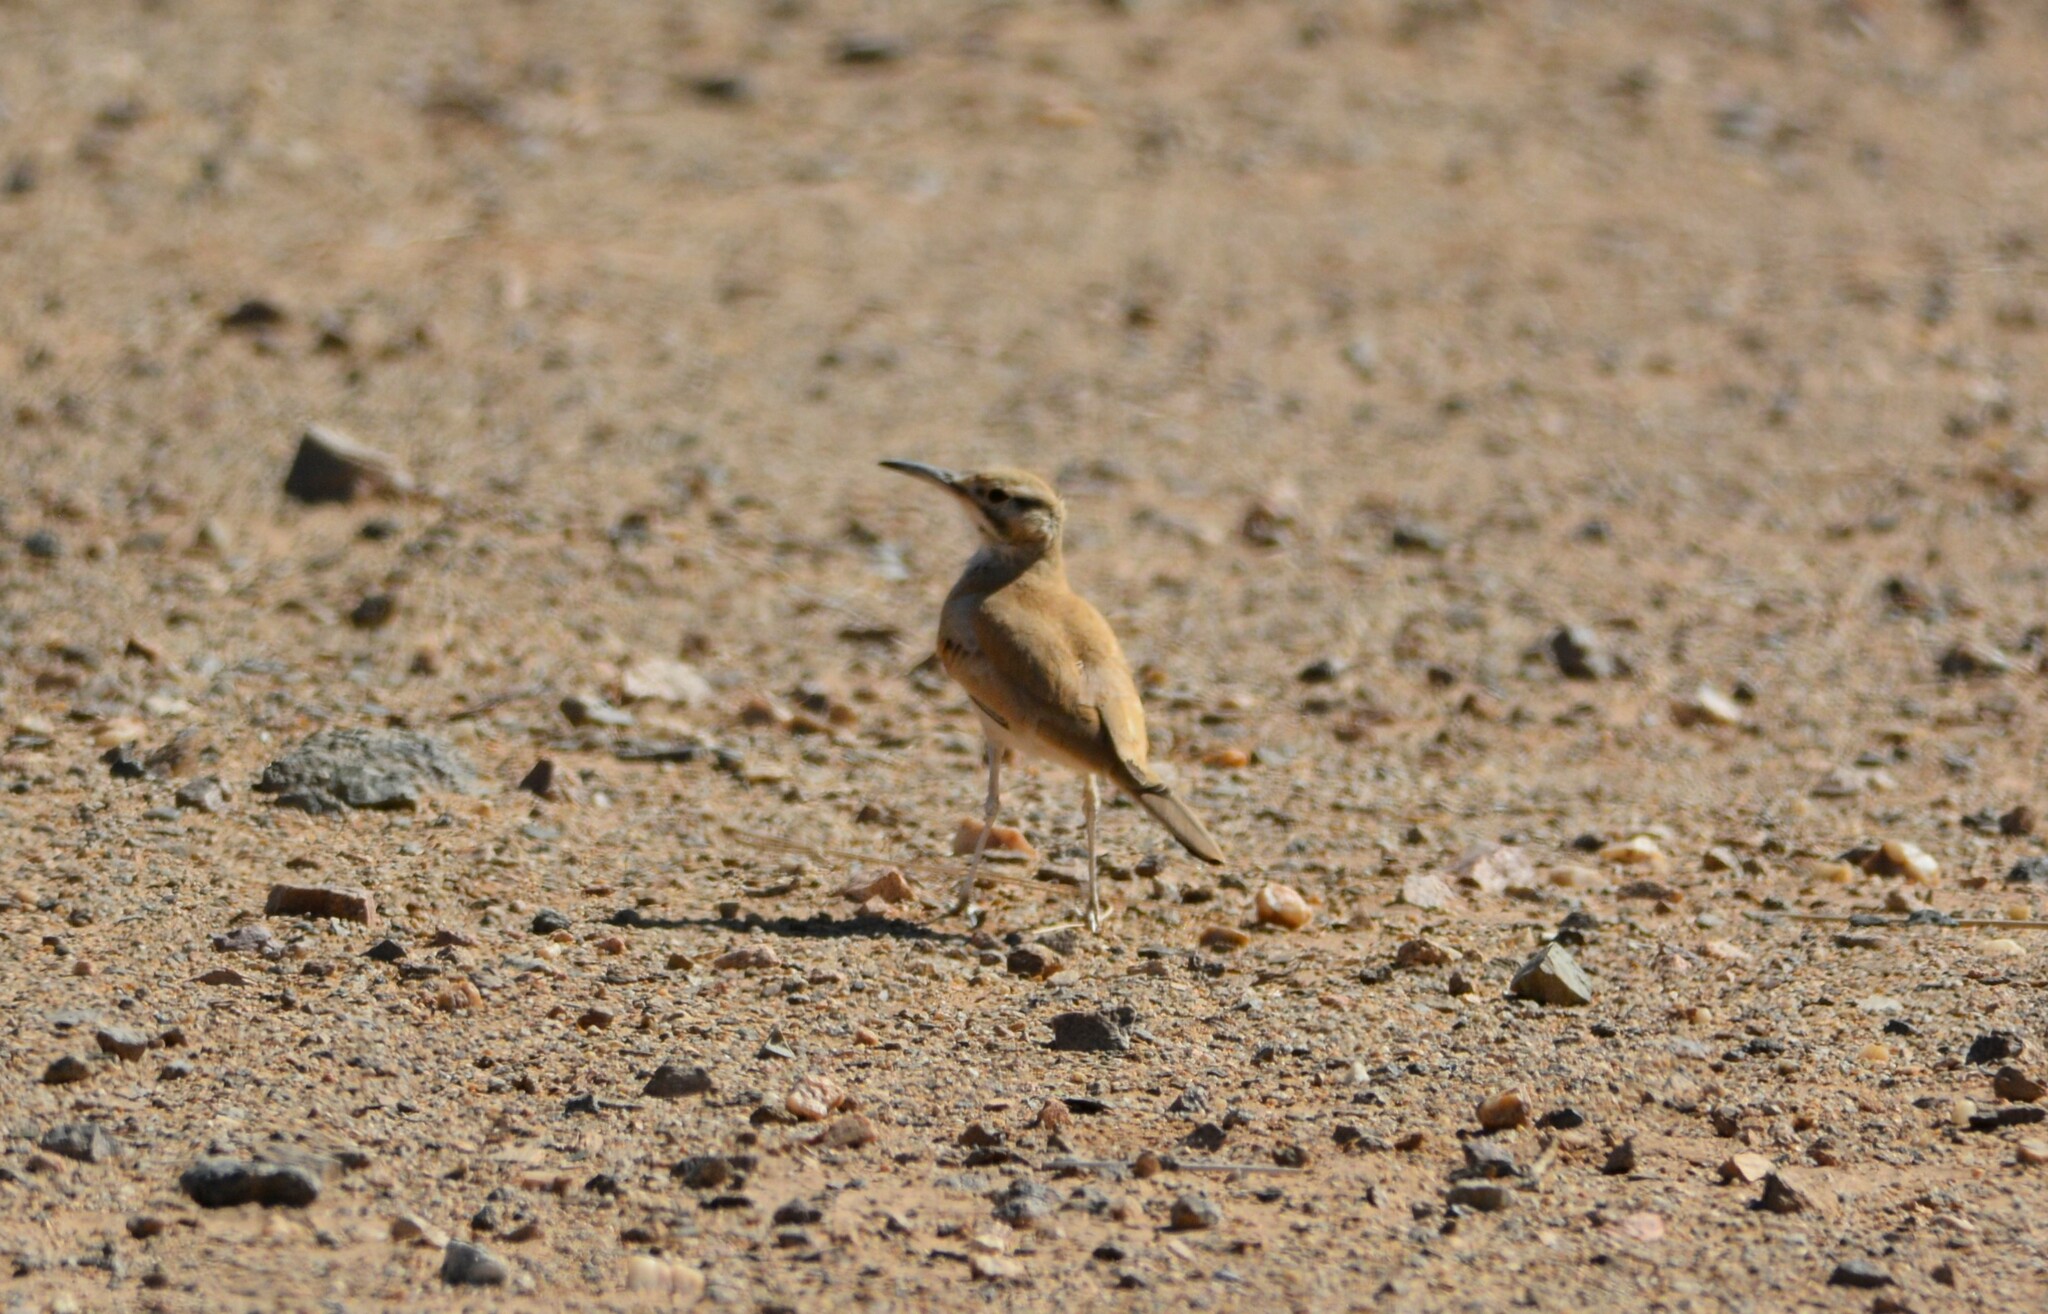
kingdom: Animalia
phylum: Chordata
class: Aves
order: Passeriformes
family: Alaudidae
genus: Alaemon
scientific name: Alaemon alaudipes
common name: Greater hoopoe-lark
